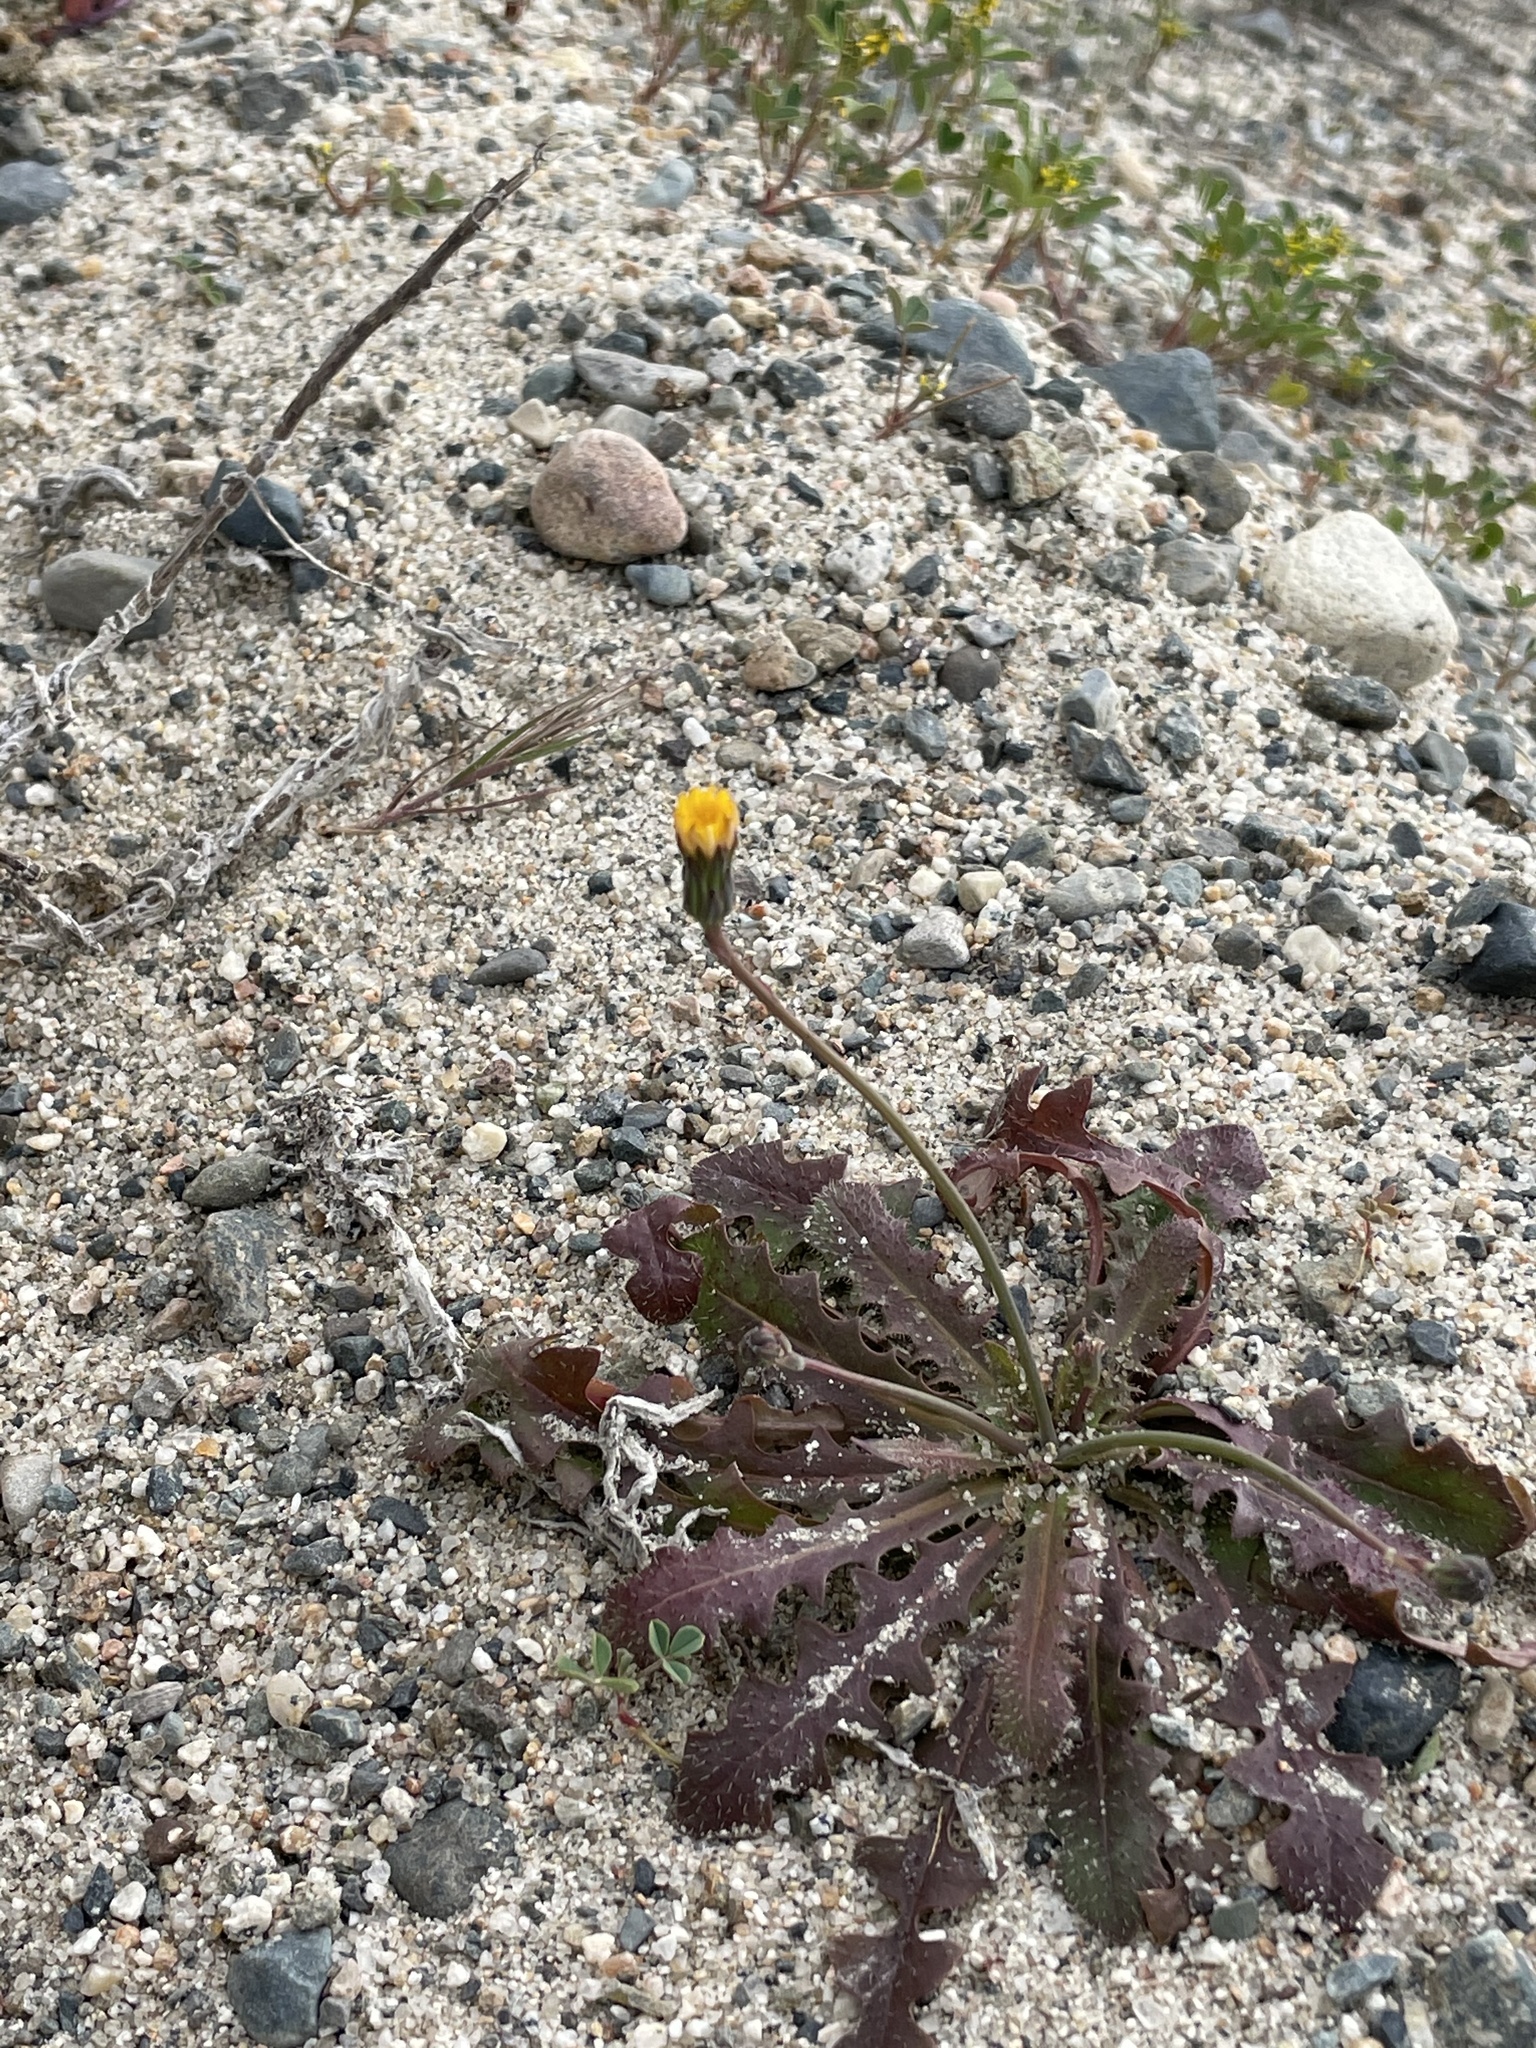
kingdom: Plantae
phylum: Tracheophyta
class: Magnoliopsida
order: Asterales
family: Asteraceae
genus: Hypochaeris
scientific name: Hypochaeris glabra
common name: Smooth catsear
